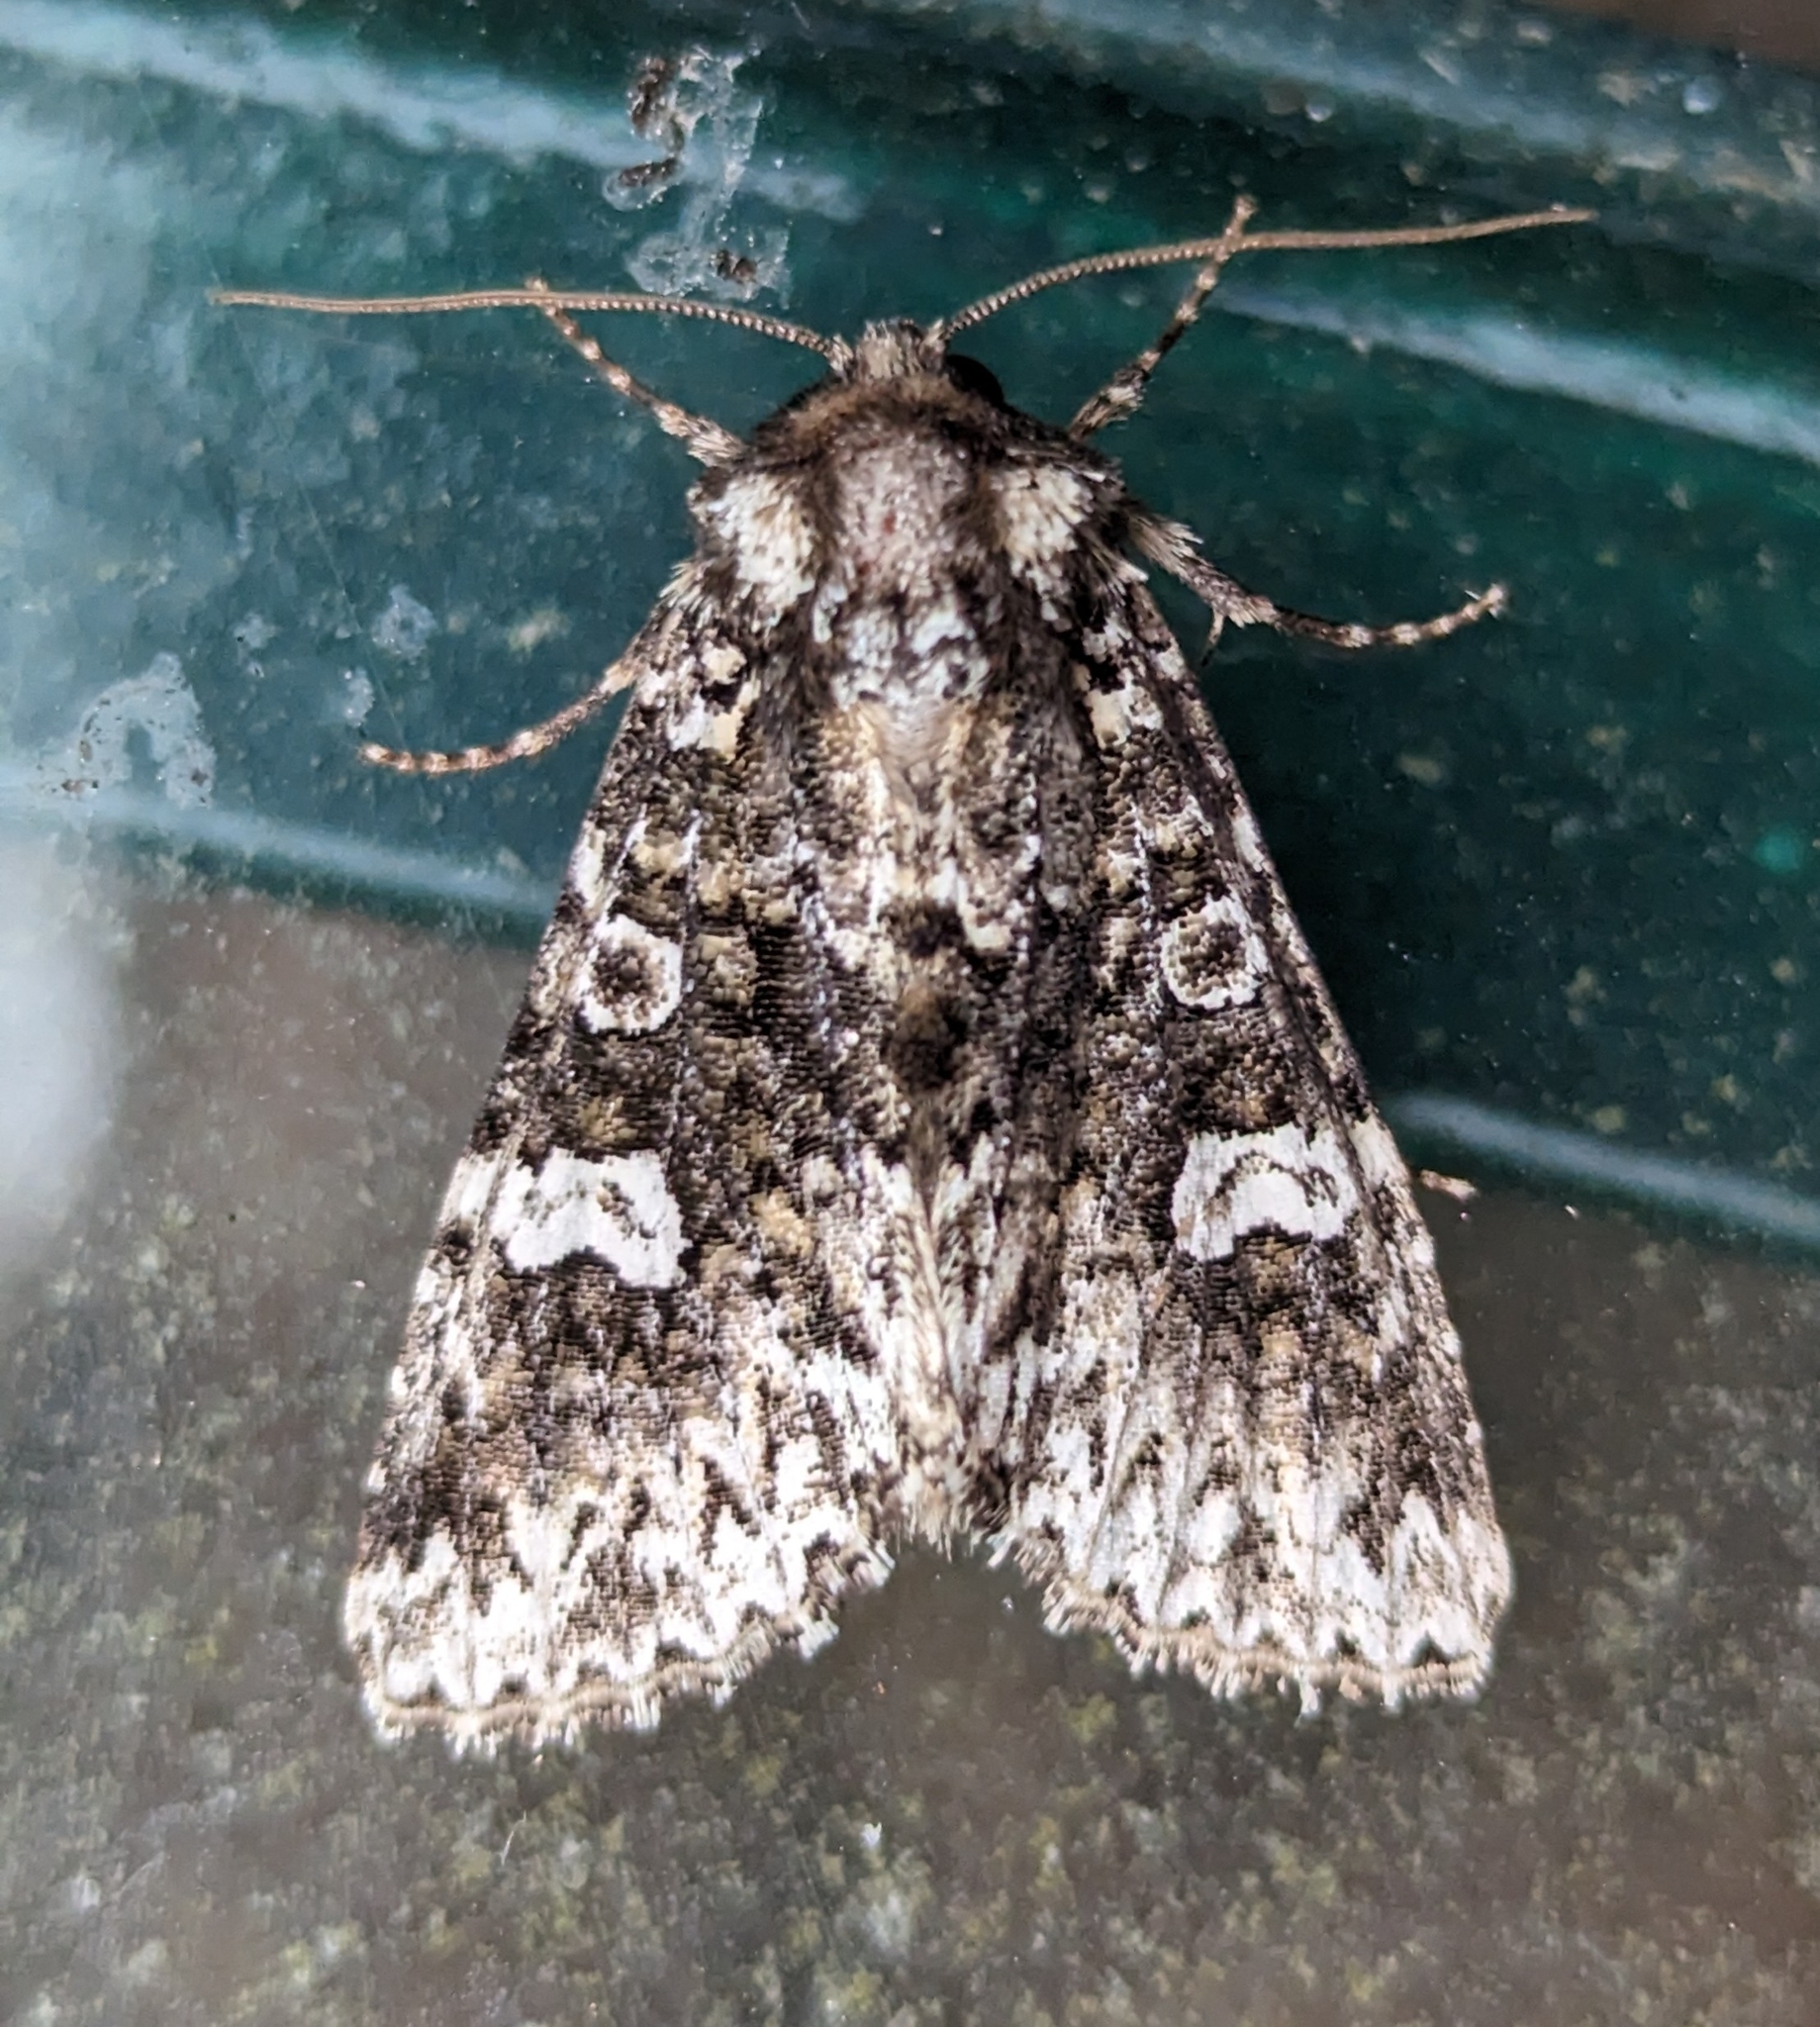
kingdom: Animalia
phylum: Arthropoda
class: Insecta
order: Lepidoptera
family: Noctuidae
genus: Melanchra
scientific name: Melanchra adjuncta
